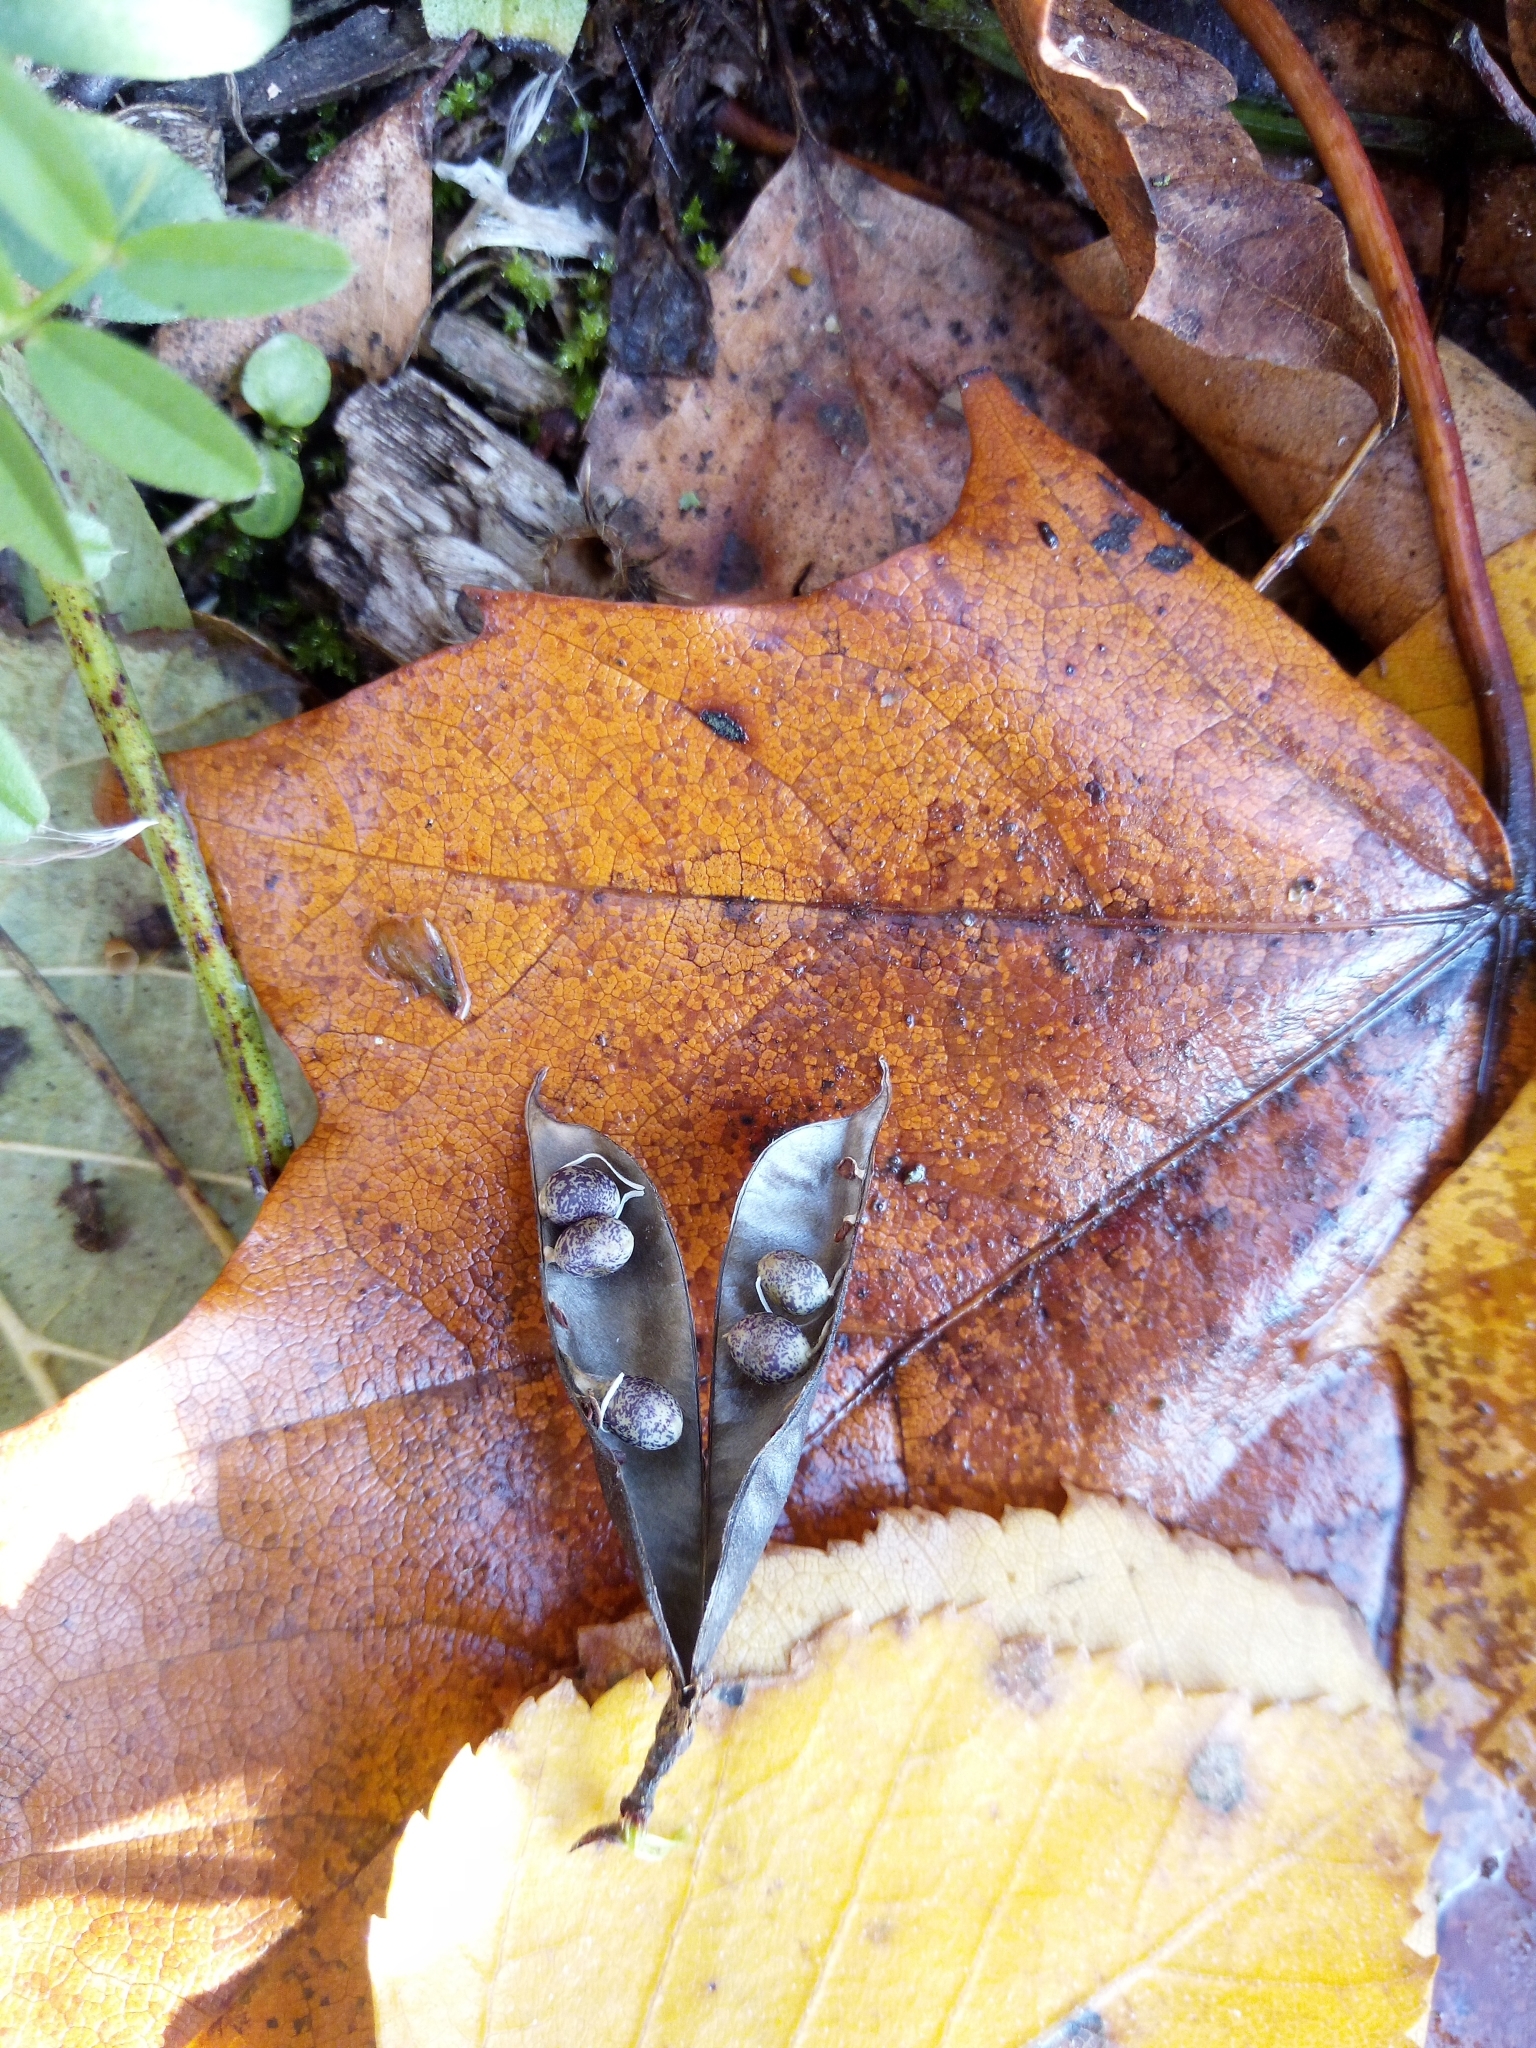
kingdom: Plantae
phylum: Tracheophyta
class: Magnoliopsida
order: Fabales
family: Fabaceae
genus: Vicia
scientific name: Vicia sepium
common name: Bush vetch
